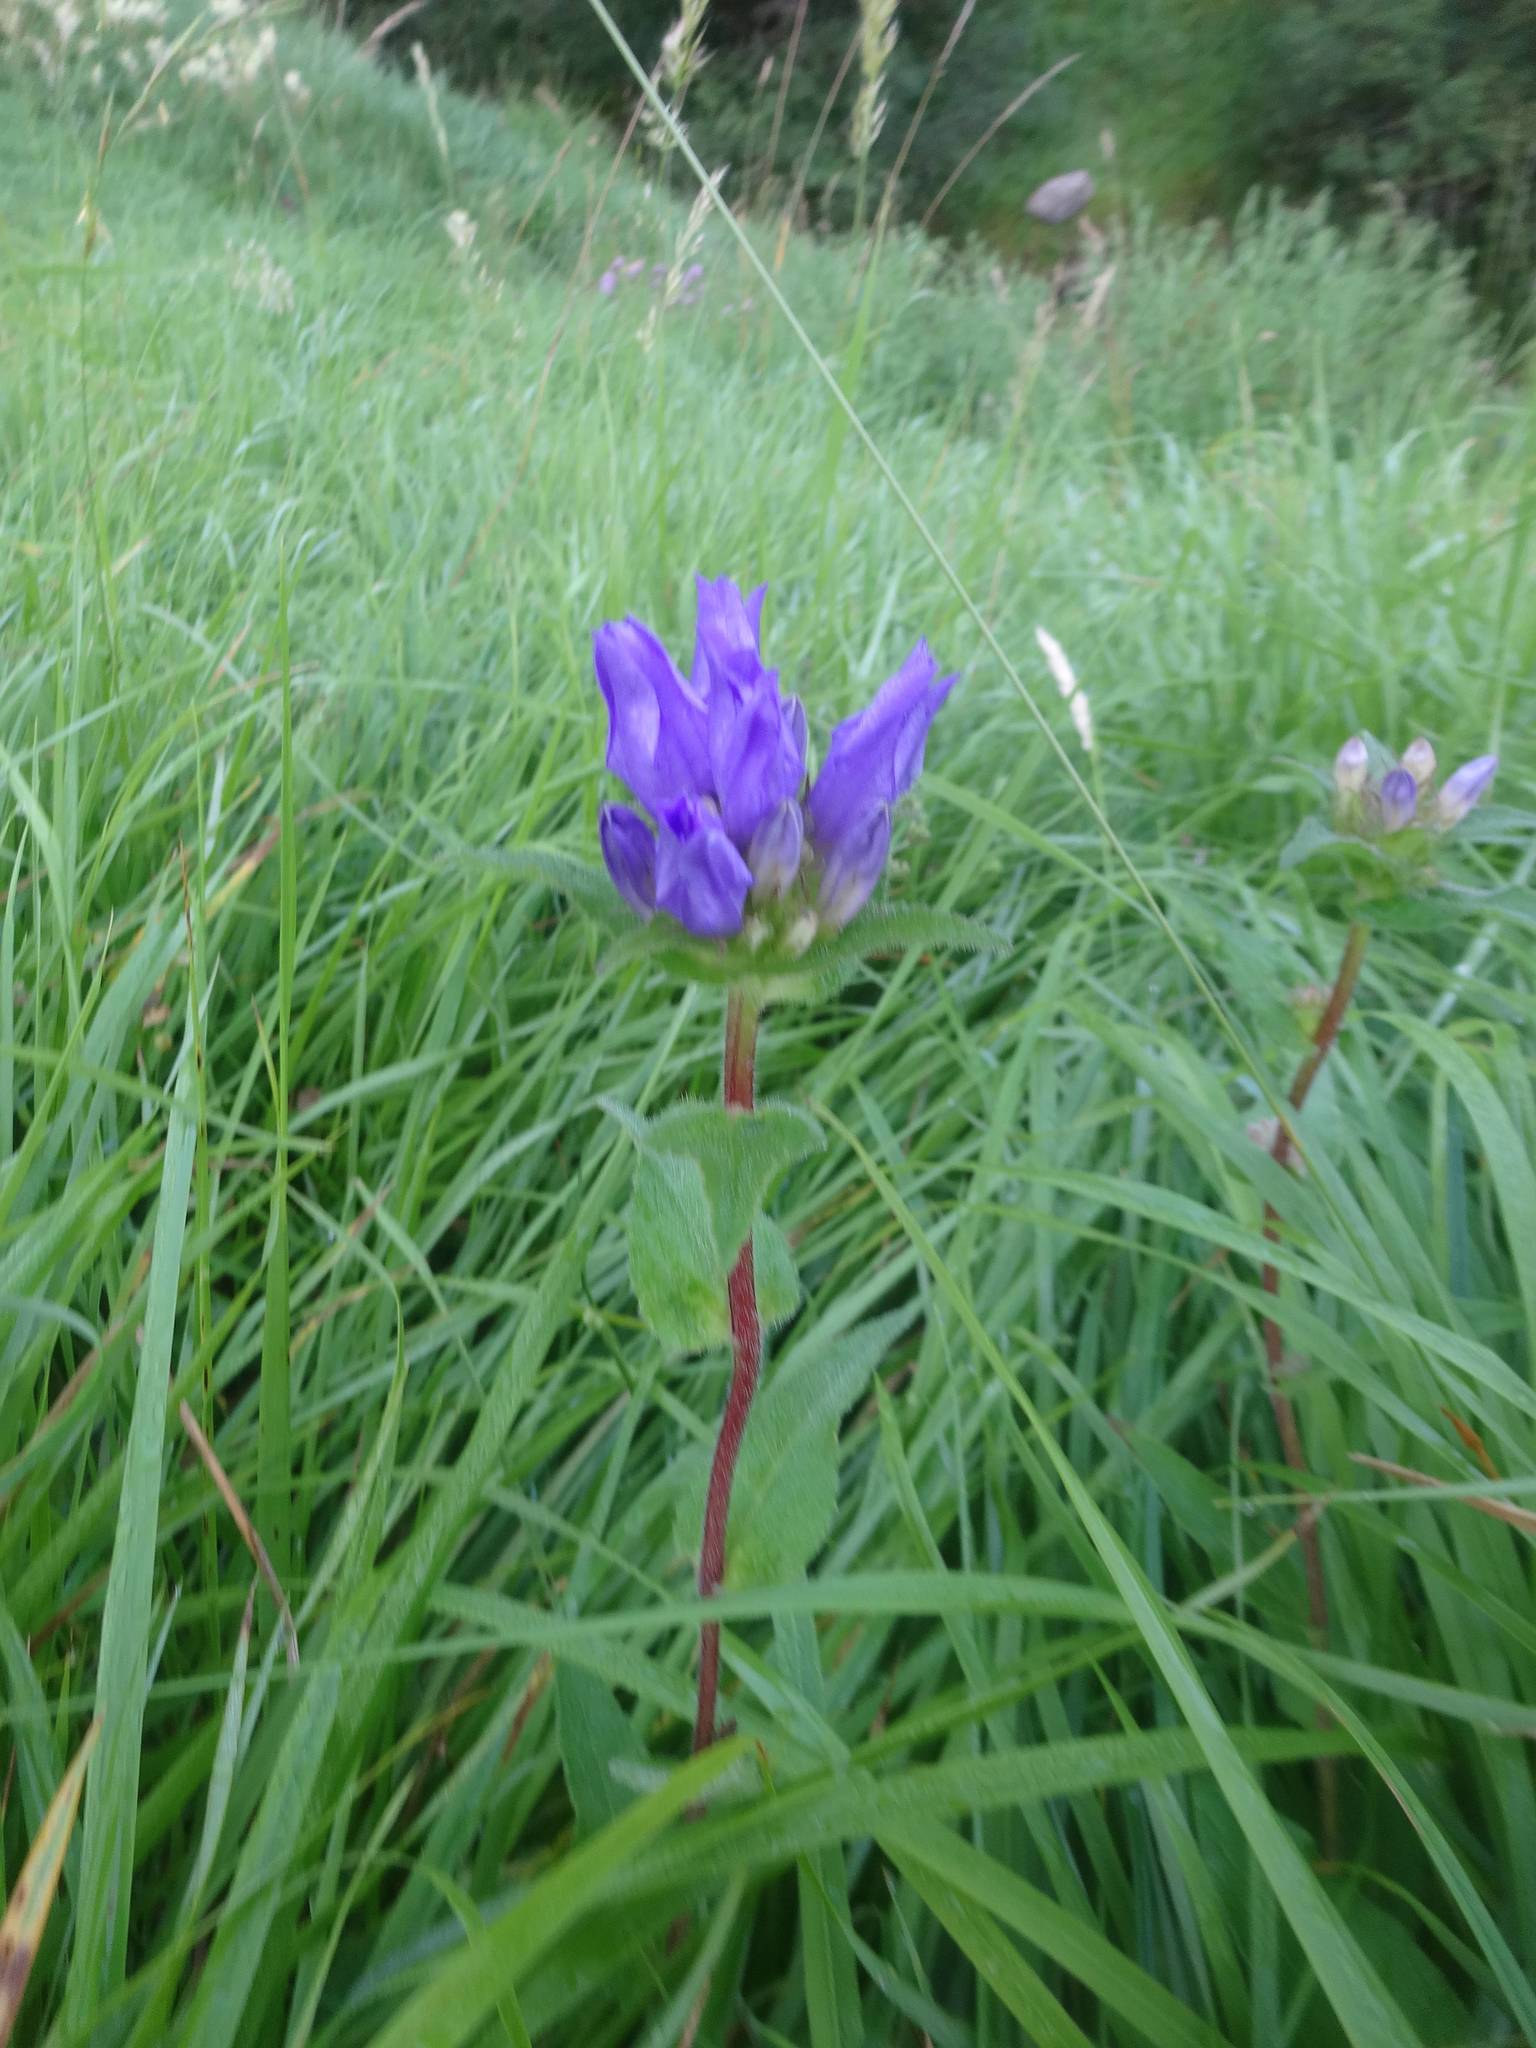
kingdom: Plantae
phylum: Tracheophyta
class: Magnoliopsida
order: Asterales
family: Campanulaceae
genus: Campanula
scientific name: Campanula glomerata
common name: Clustered bellflower
